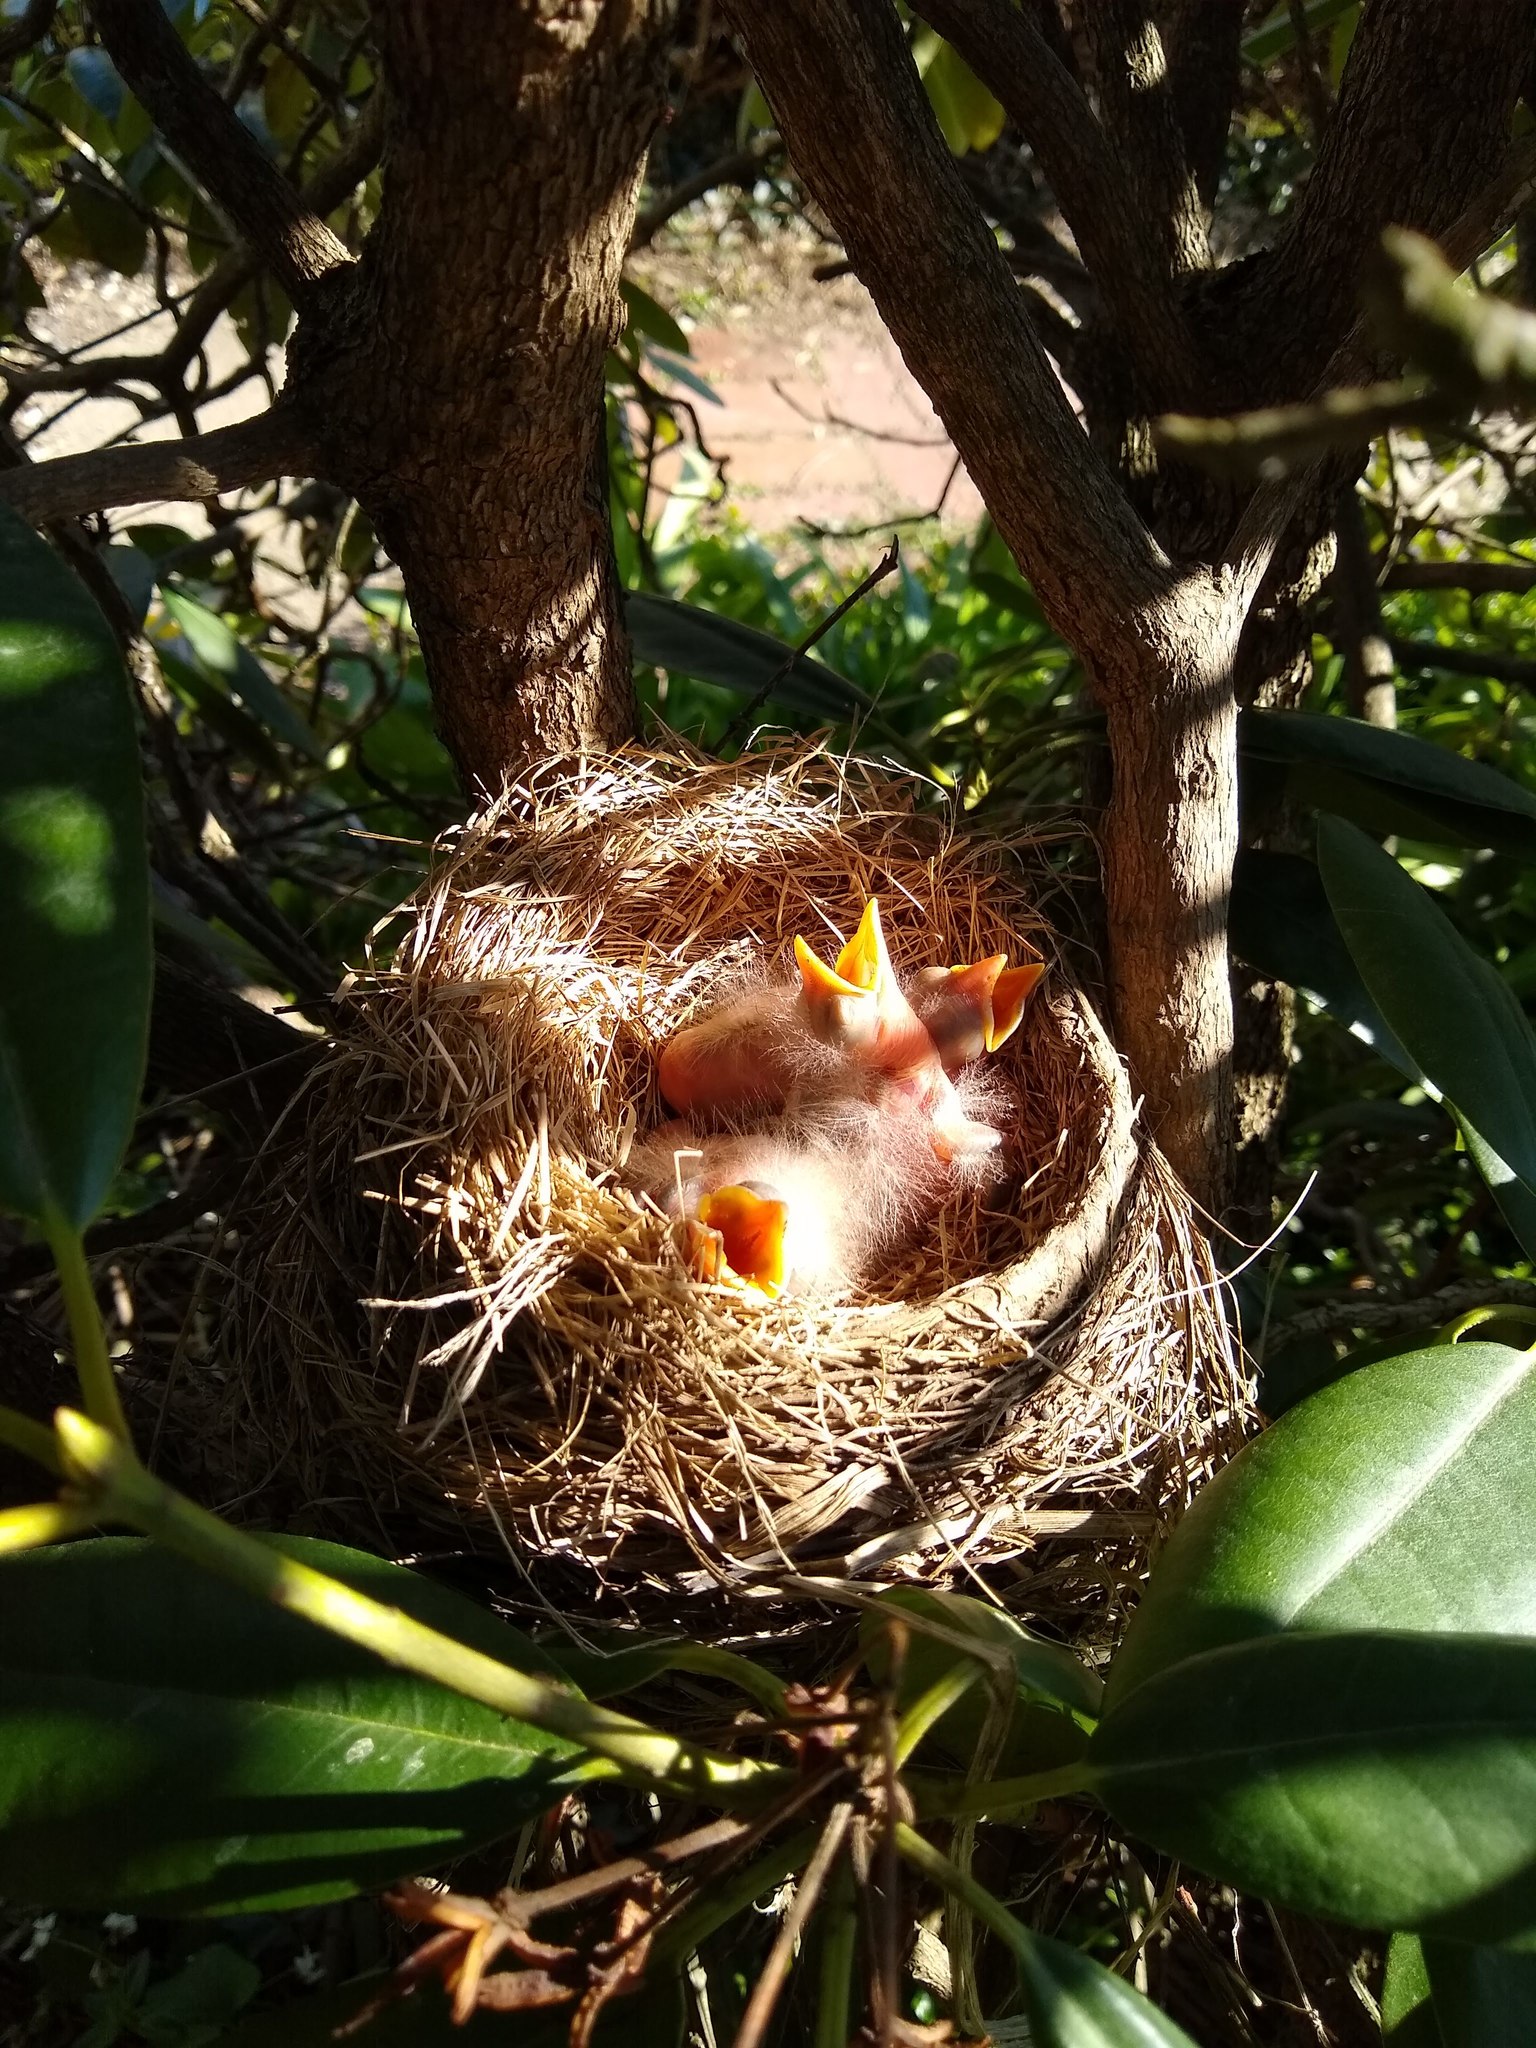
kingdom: Animalia
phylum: Chordata
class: Aves
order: Passeriformes
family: Turdidae
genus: Turdus
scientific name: Turdus migratorius
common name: American robin
